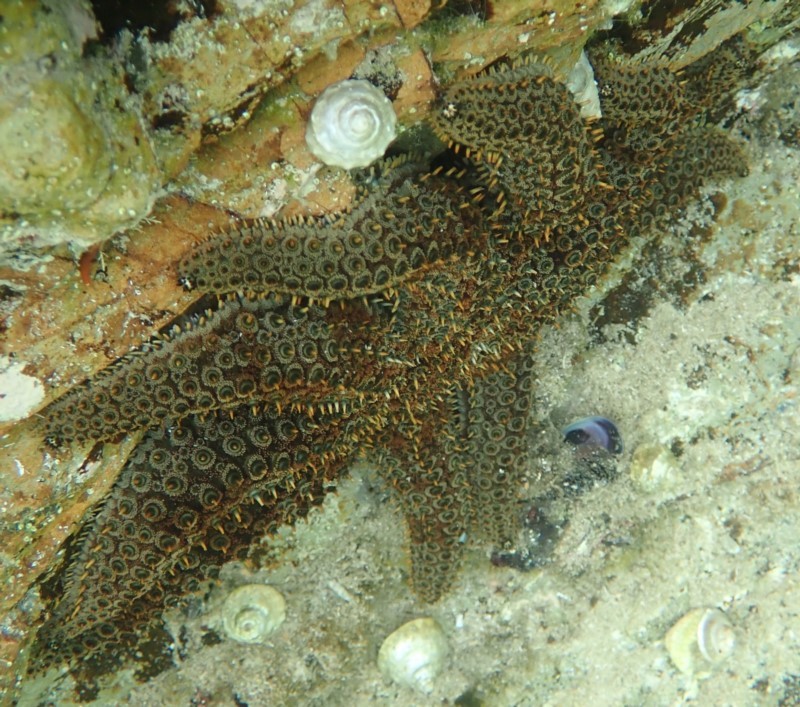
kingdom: Animalia
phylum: Echinodermata
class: Asteroidea
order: Forcipulatida
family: Asteriidae
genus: Coscinasterias
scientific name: Coscinasterias muricata
